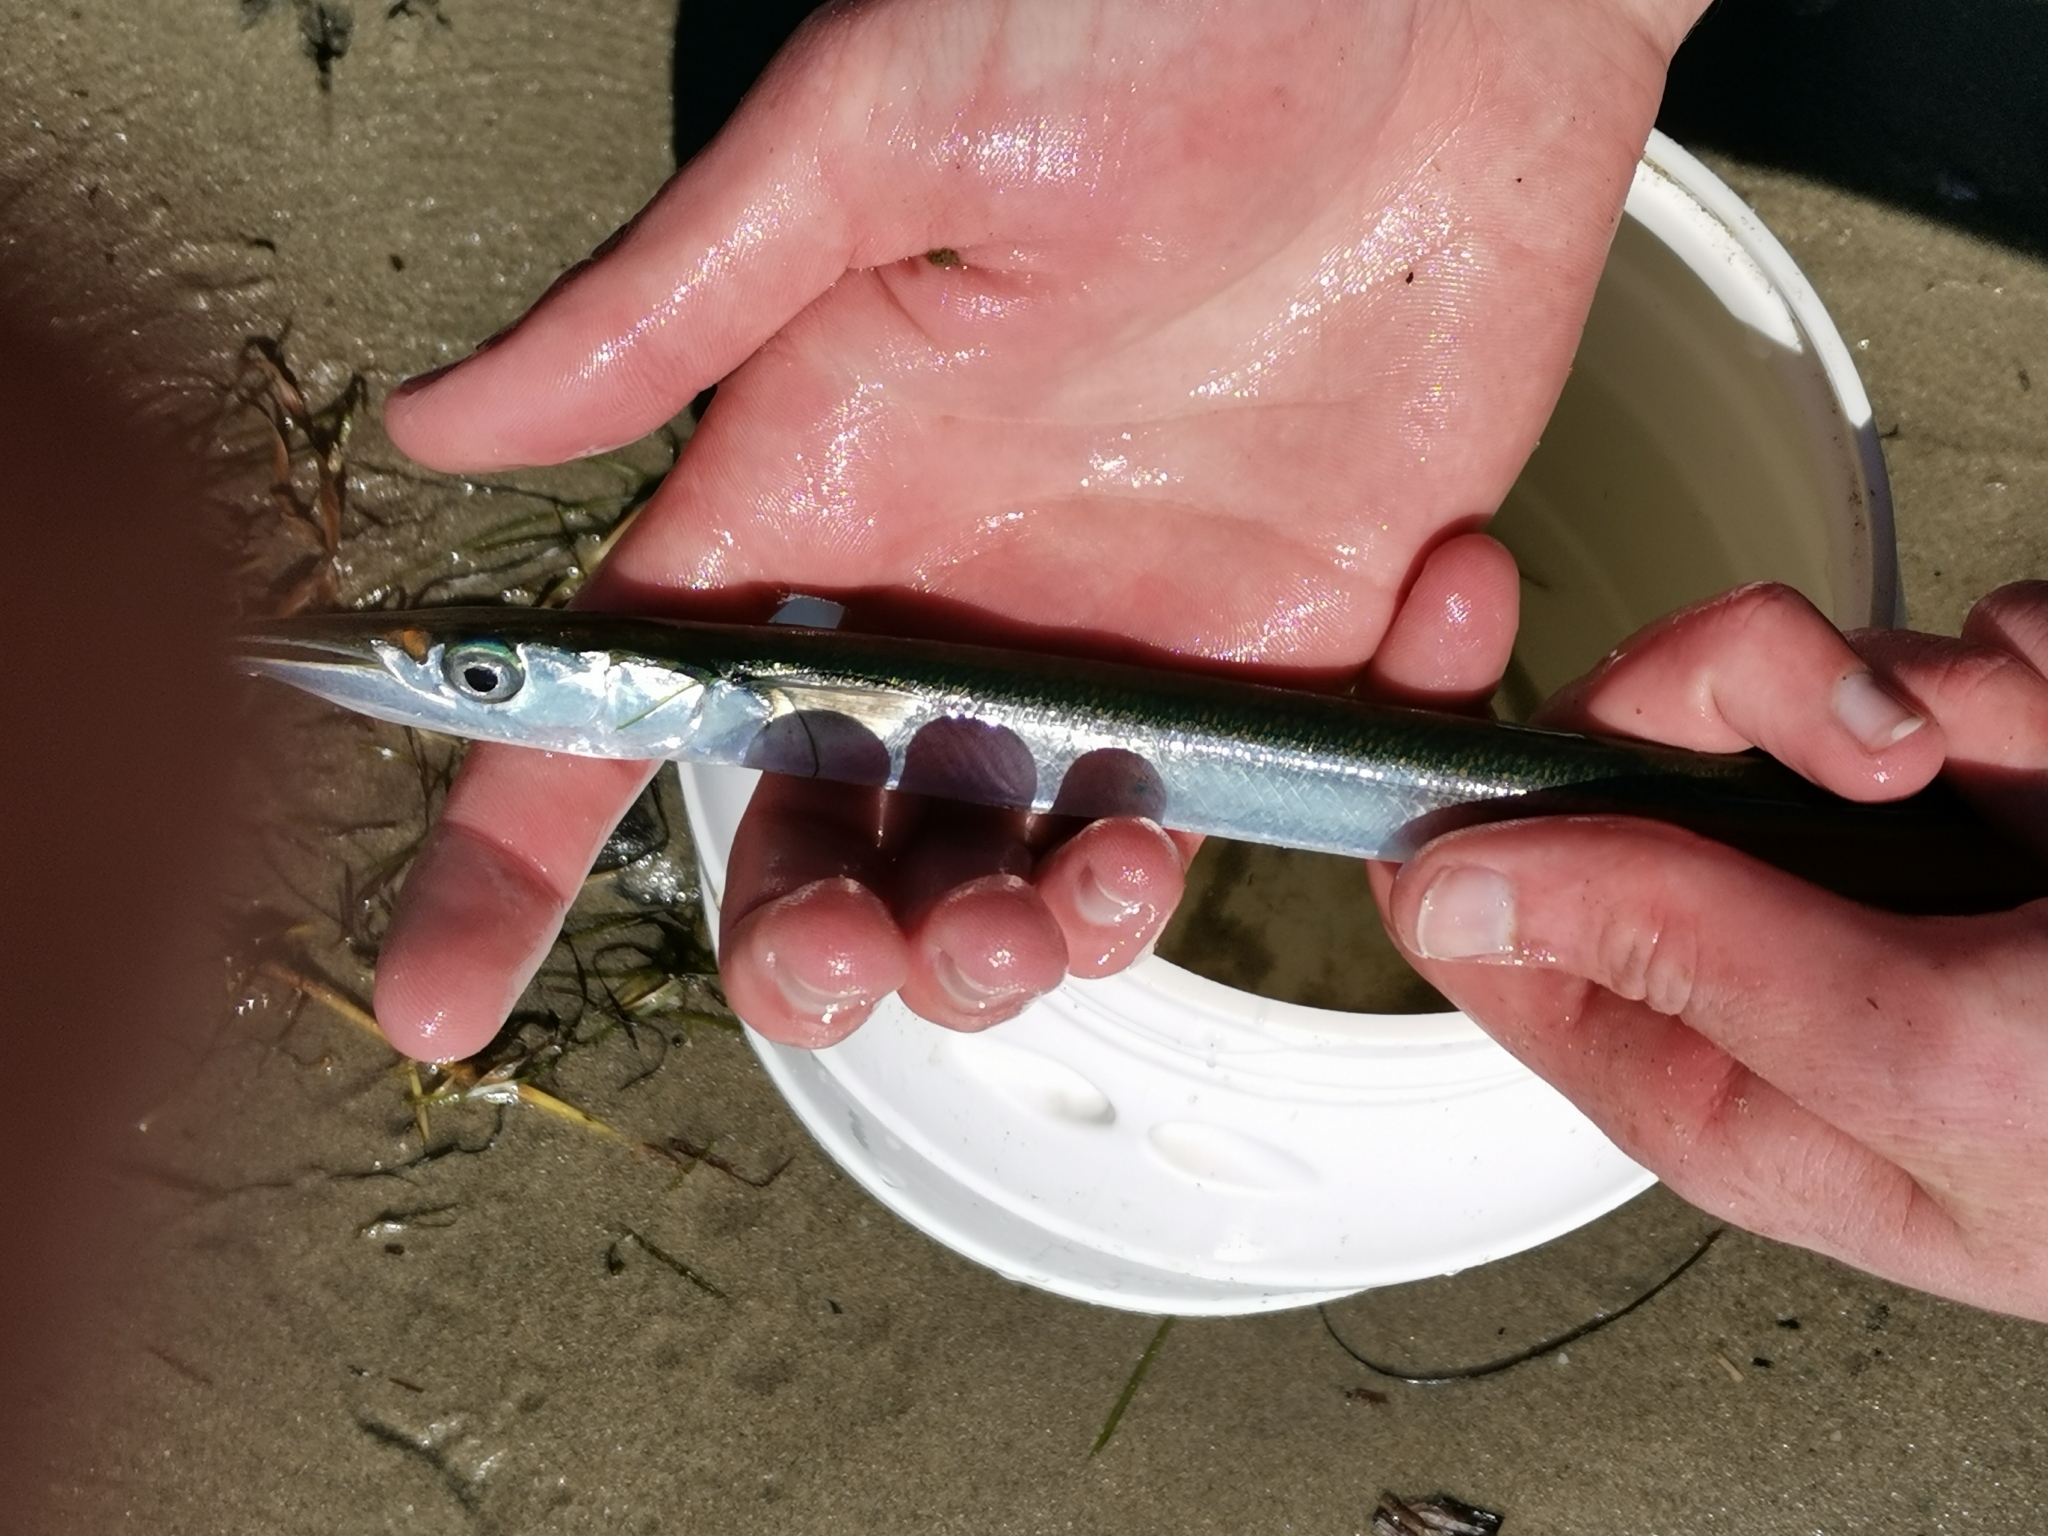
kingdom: Animalia
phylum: Chordata
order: Beloniformes
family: Belonidae
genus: Belone
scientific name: Belone belone
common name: Garfish
